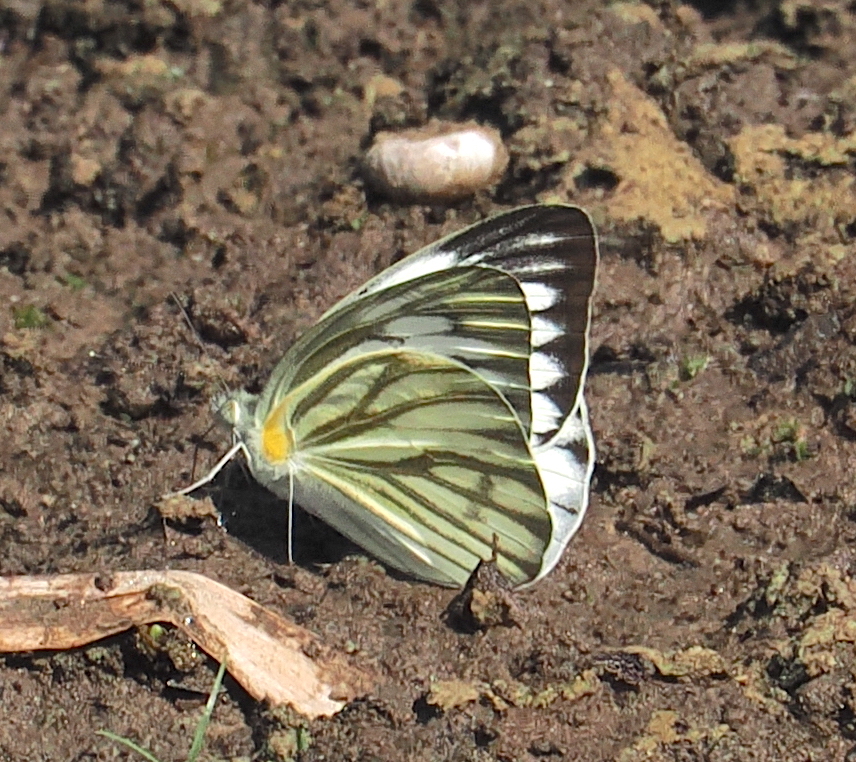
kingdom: Animalia
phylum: Arthropoda
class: Insecta
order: Lepidoptera
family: Pieridae
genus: Cepora
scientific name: Cepora nerissa
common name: Common gull
